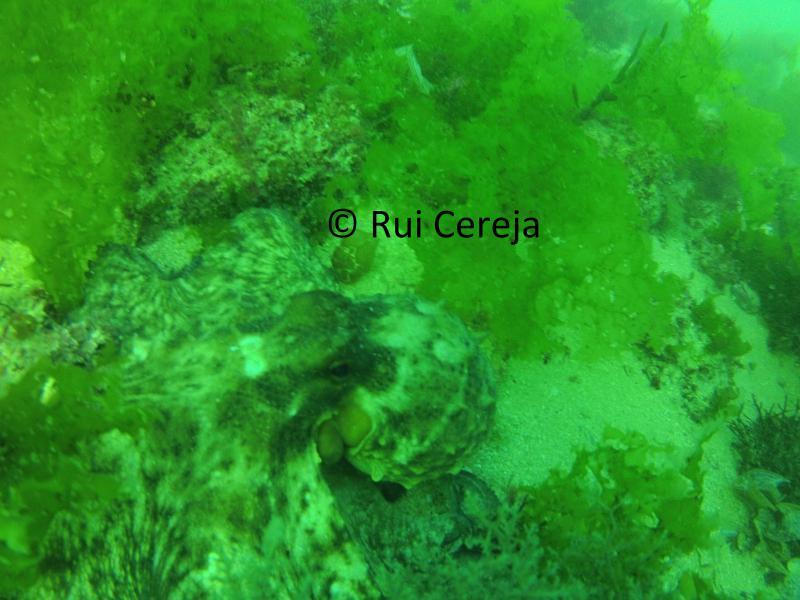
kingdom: Animalia
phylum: Mollusca
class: Cephalopoda
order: Octopoda
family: Octopodidae
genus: Octopus
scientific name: Octopus vulgaris
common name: Common octopus
